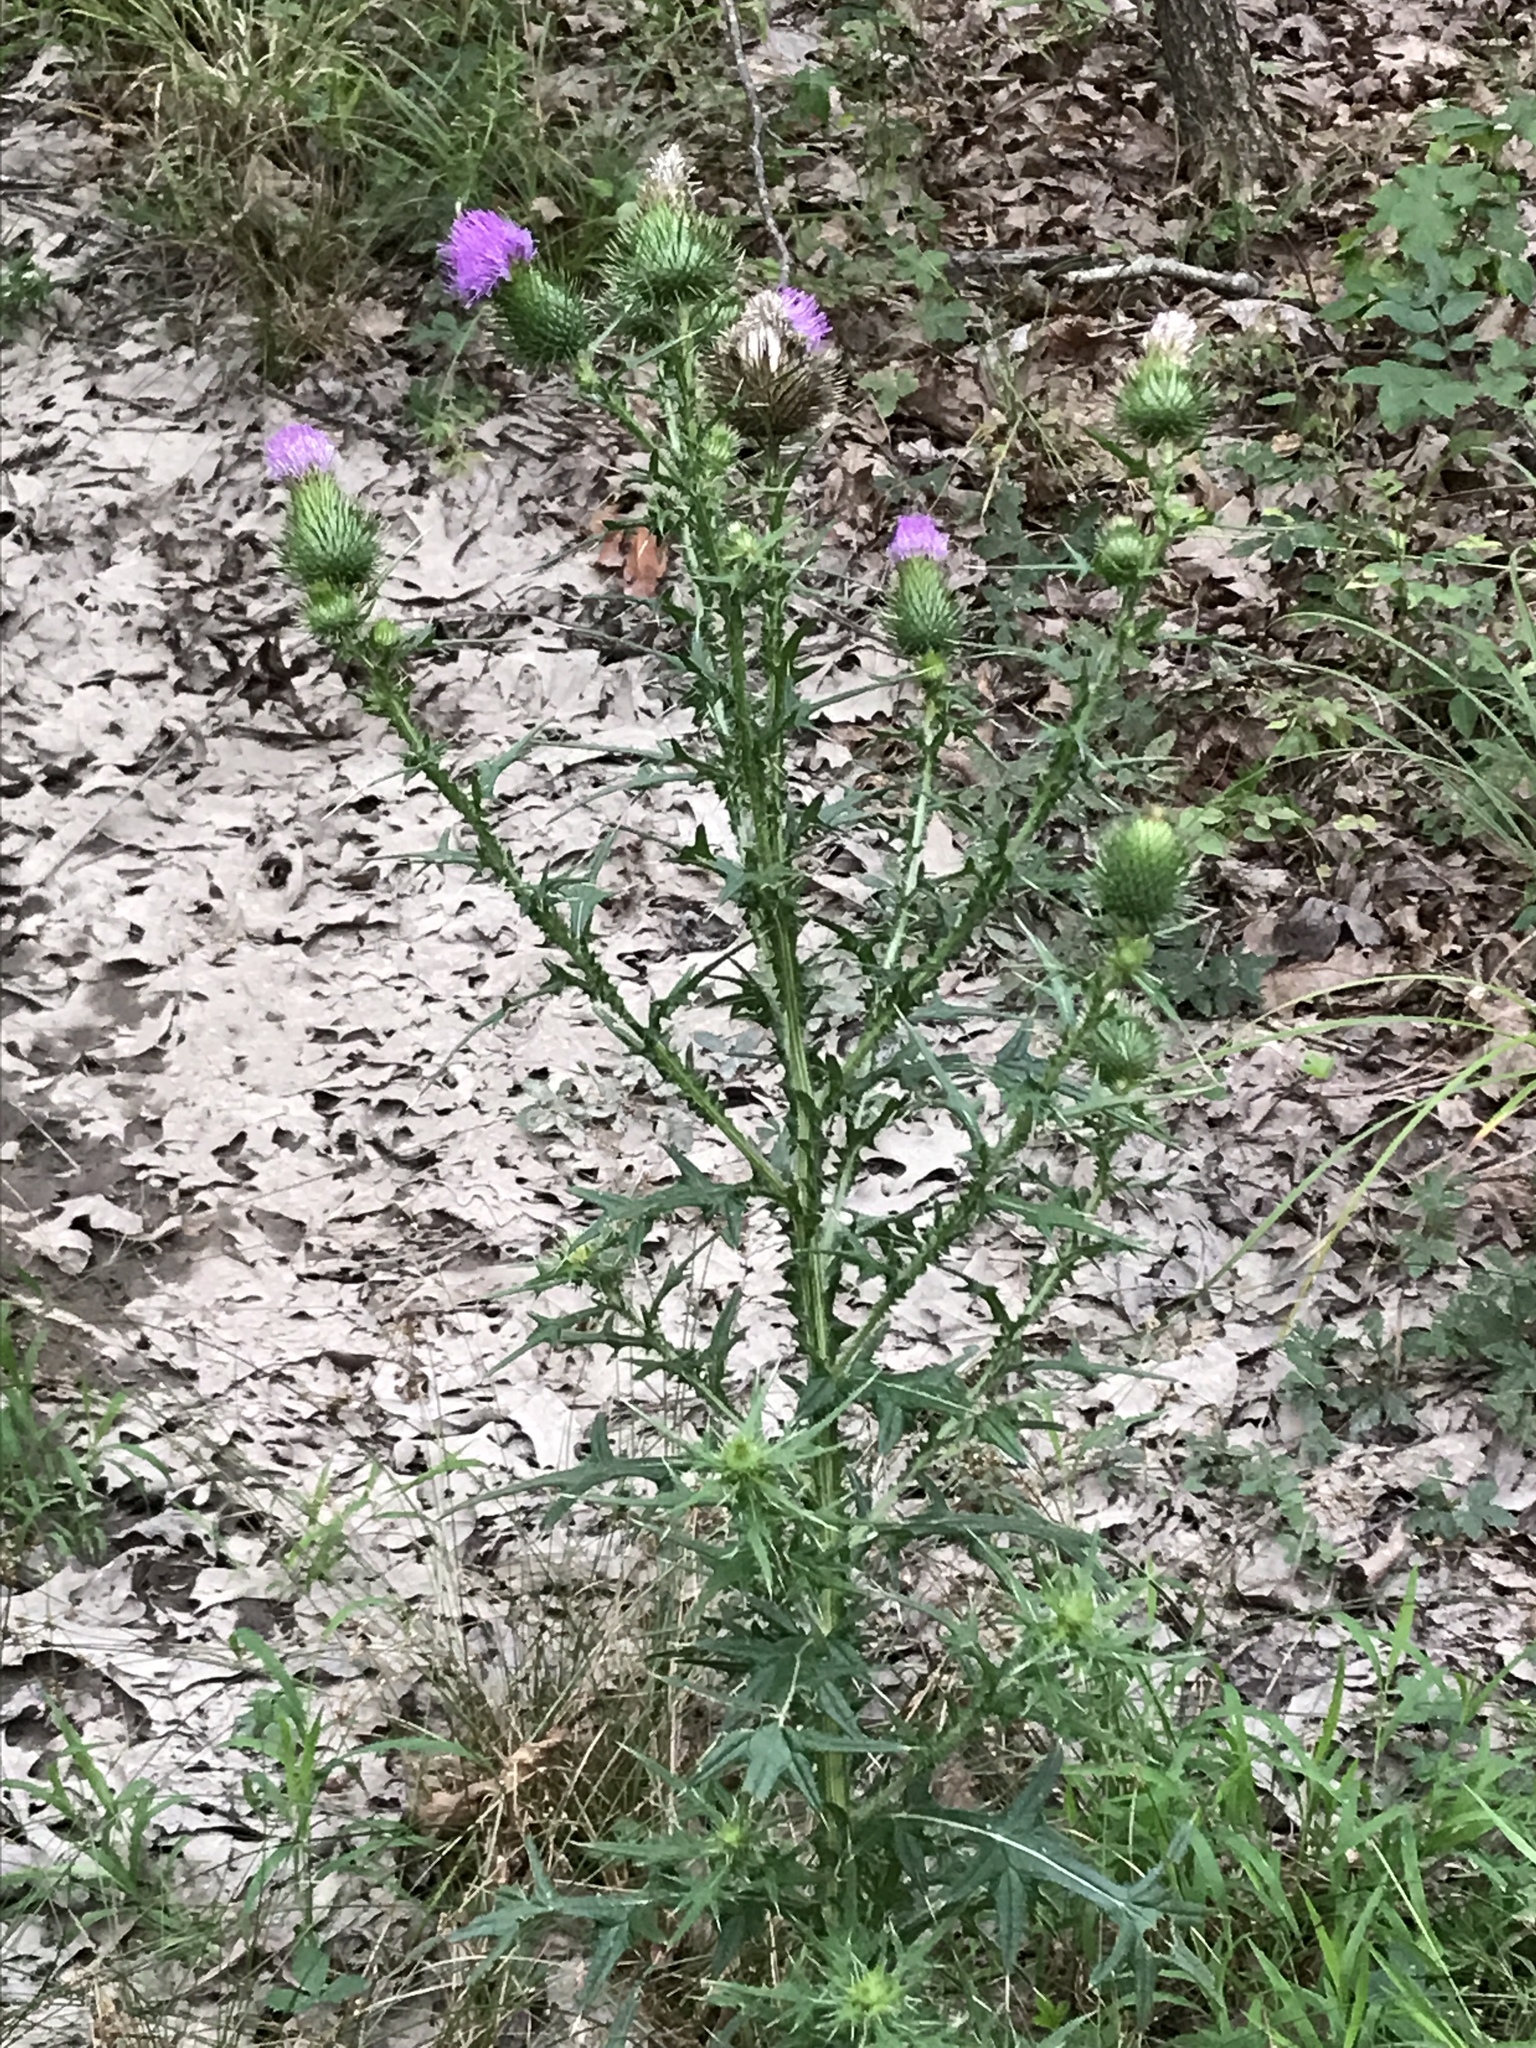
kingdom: Plantae
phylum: Tracheophyta
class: Magnoliopsida
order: Asterales
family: Asteraceae
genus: Cirsium
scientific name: Cirsium vulgare
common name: Bull thistle
